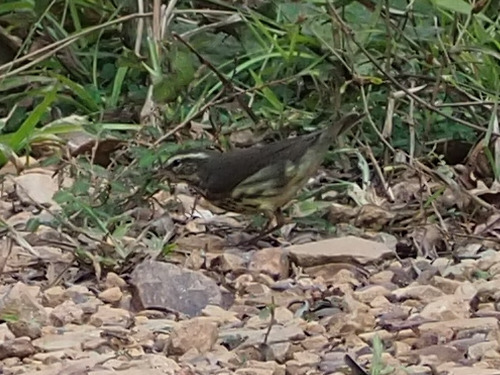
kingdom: Animalia
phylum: Chordata
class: Aves
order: Passeriformes
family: Parulidae
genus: Parkesia
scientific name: Parkesia noveboracensis
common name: Northern waterthrush
